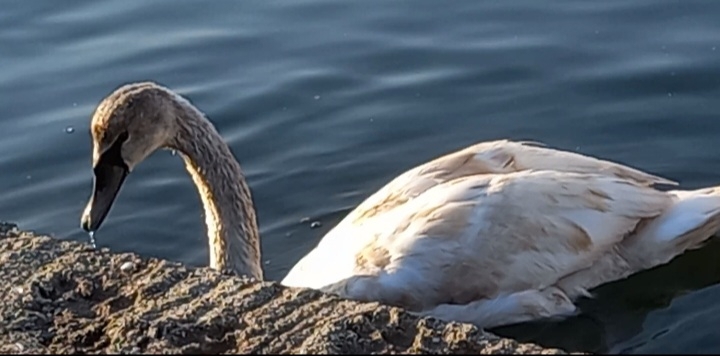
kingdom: Animalia
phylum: Chordata
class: Aves
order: Anseriformes
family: Anatidae
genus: Cygnus
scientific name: Cygnus olor
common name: Mute swan
